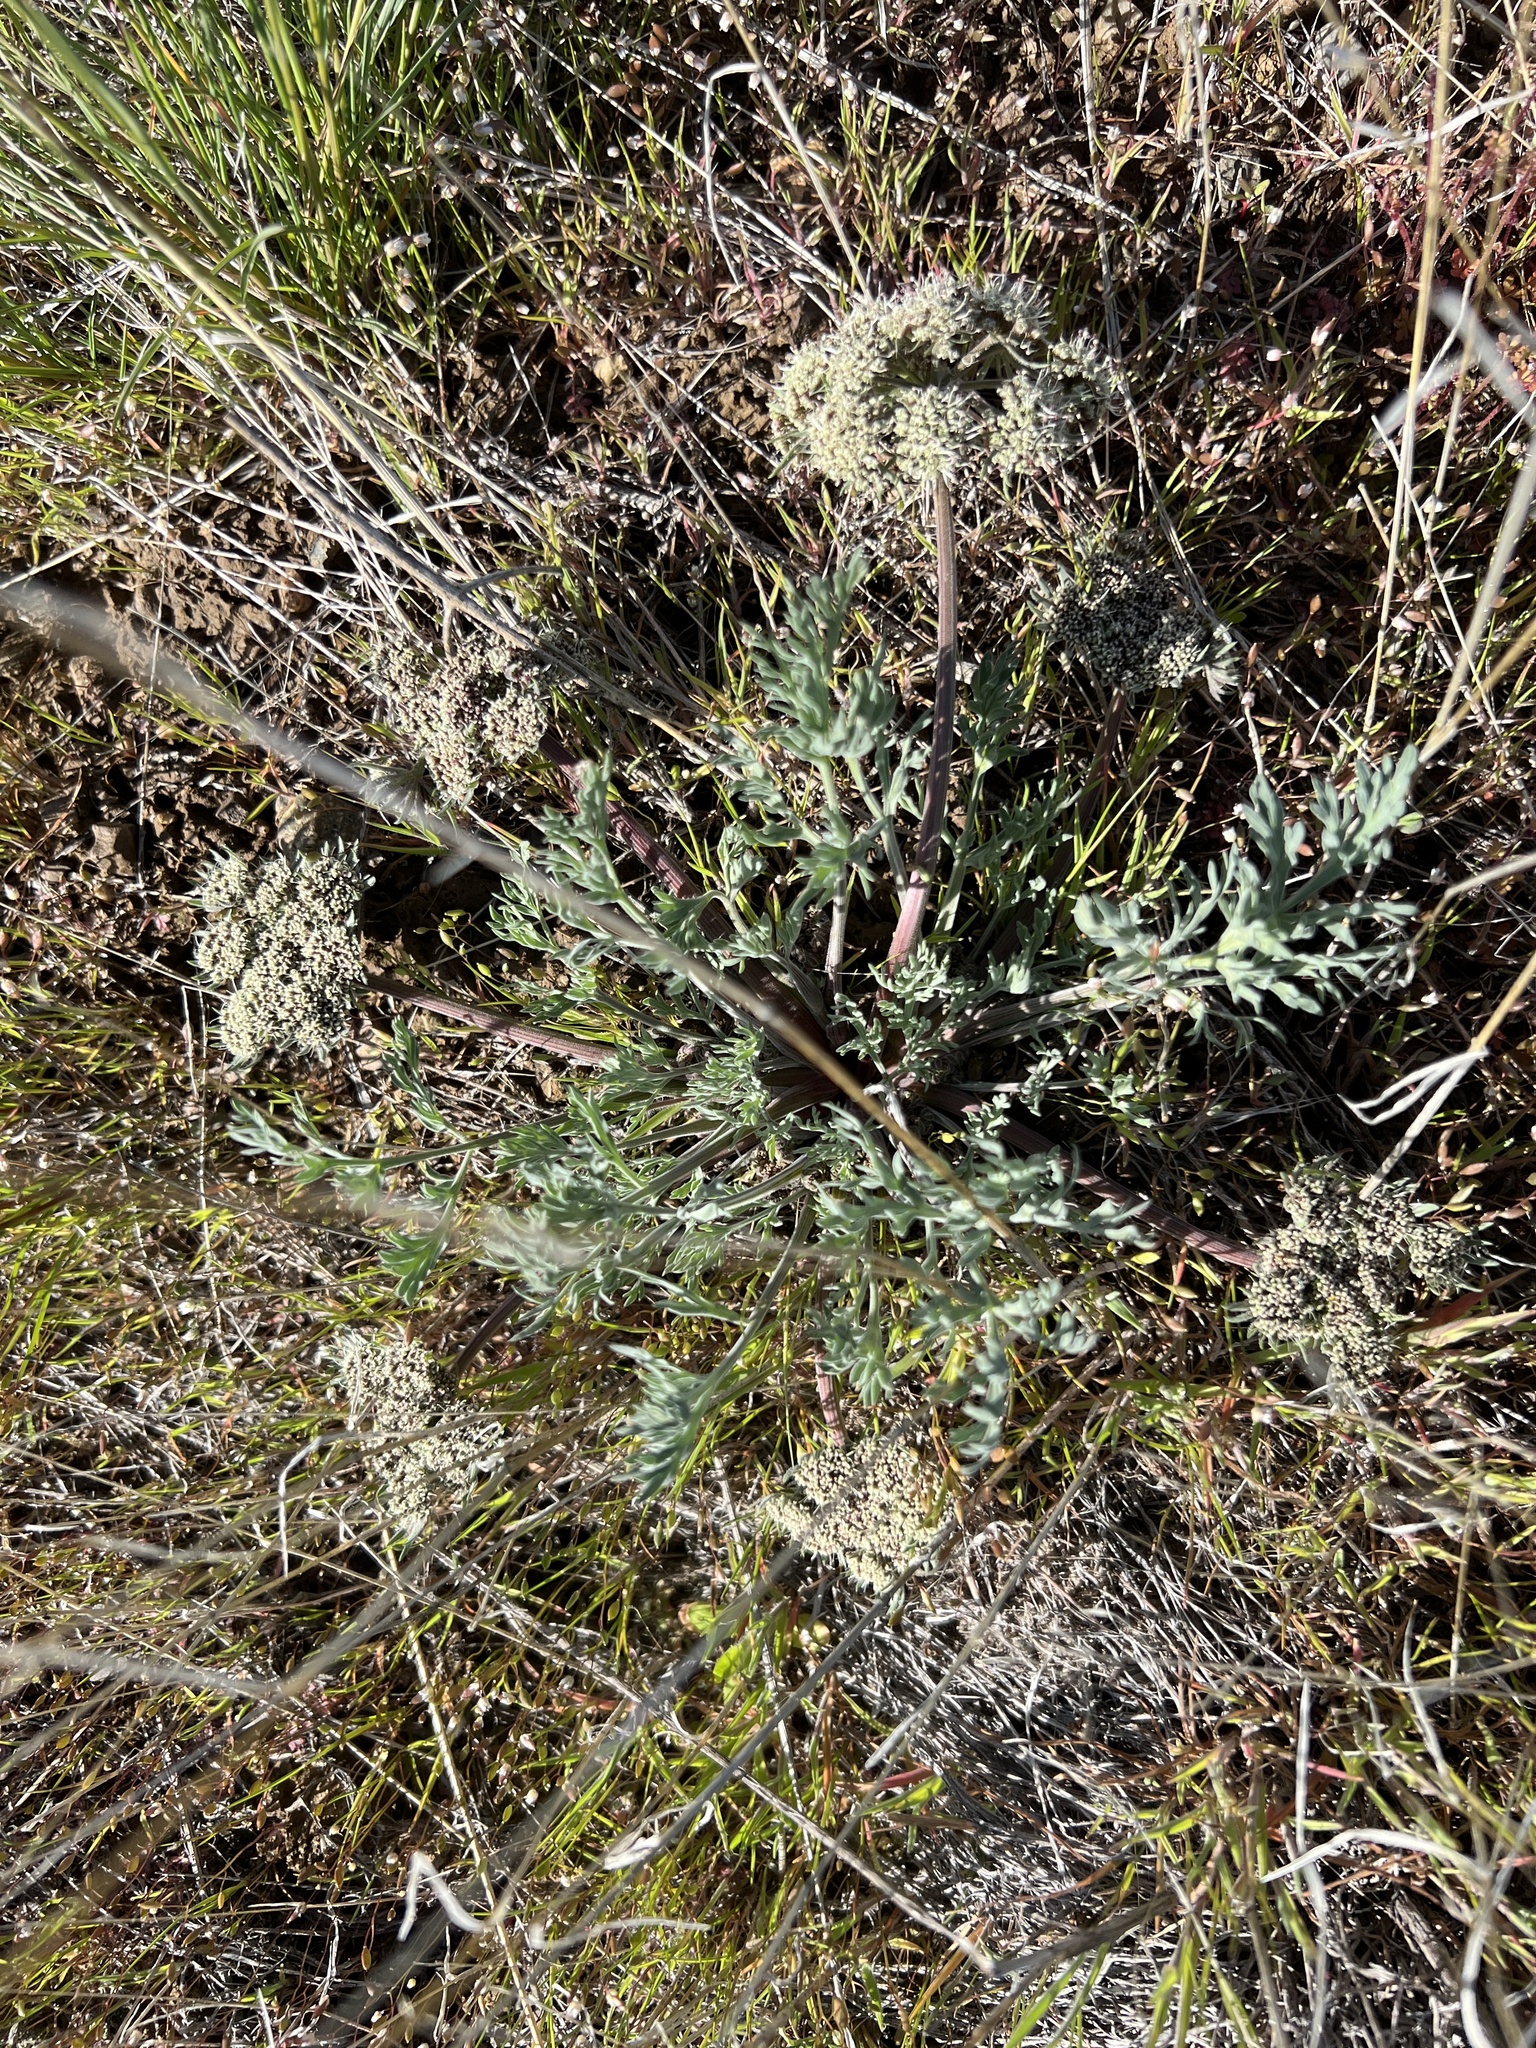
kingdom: Plantae
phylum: Tracheophyta
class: Magnoliopsida
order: Apiales
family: Apiaceae
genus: Lomatium
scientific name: Lomatium macrocarpum
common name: Big-seed biscuitroot
